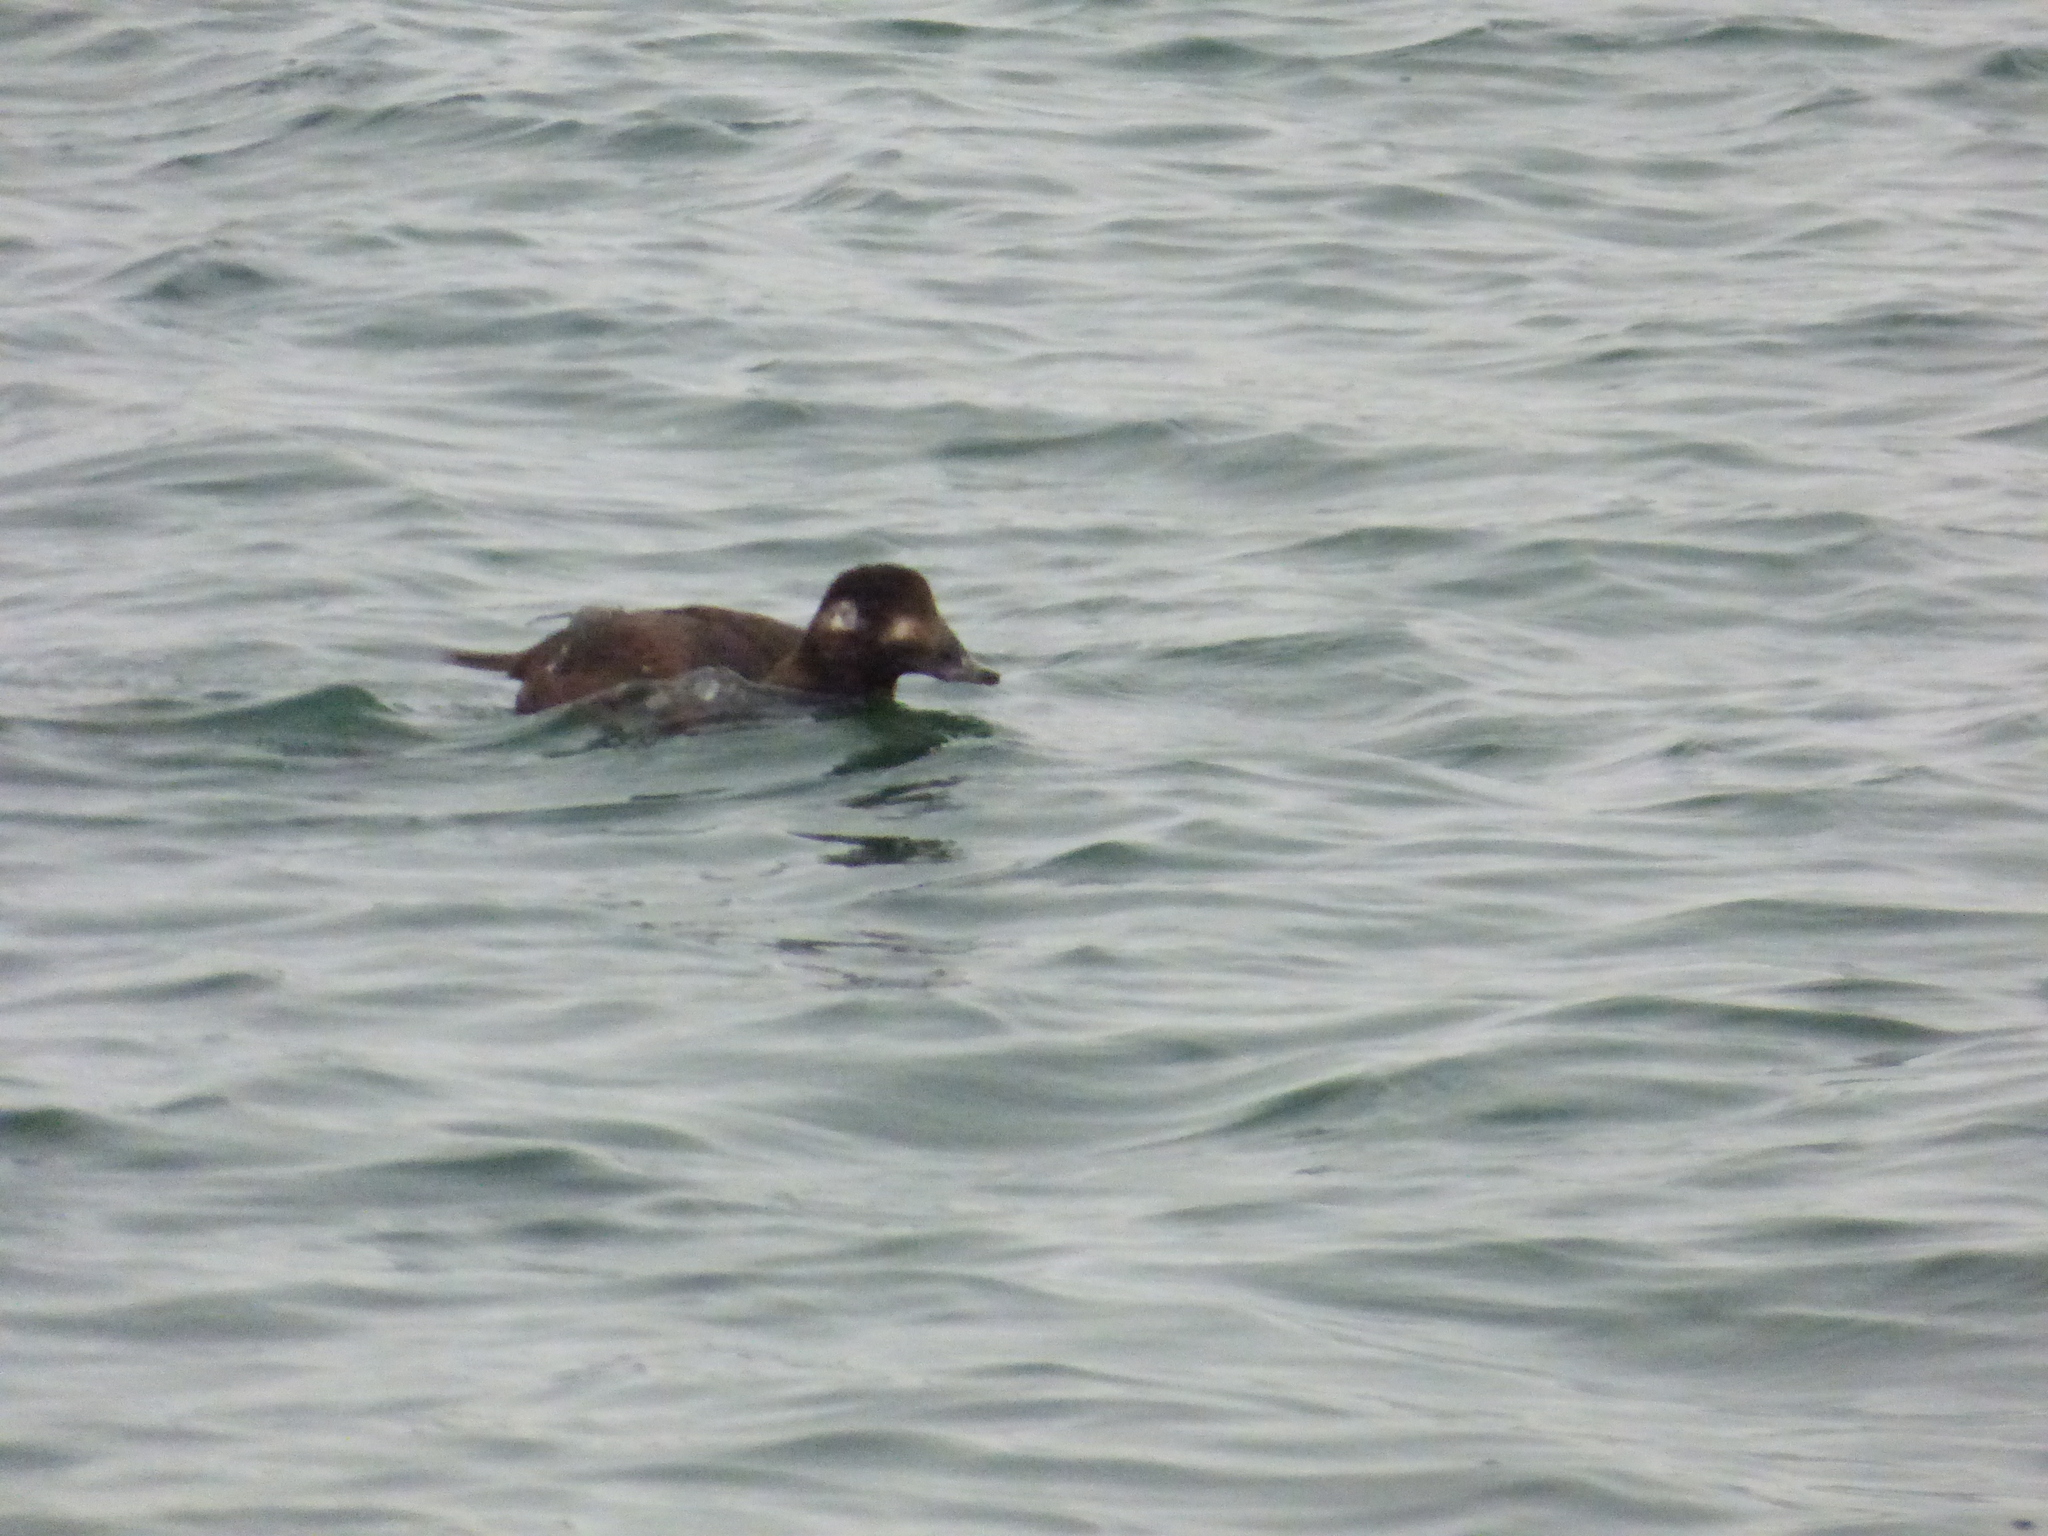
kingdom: Animalia
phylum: Chordata
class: Aves
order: Anseriformes
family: Anatidae
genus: Melanitta
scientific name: Melanitta deglandi
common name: White-winged scoter
